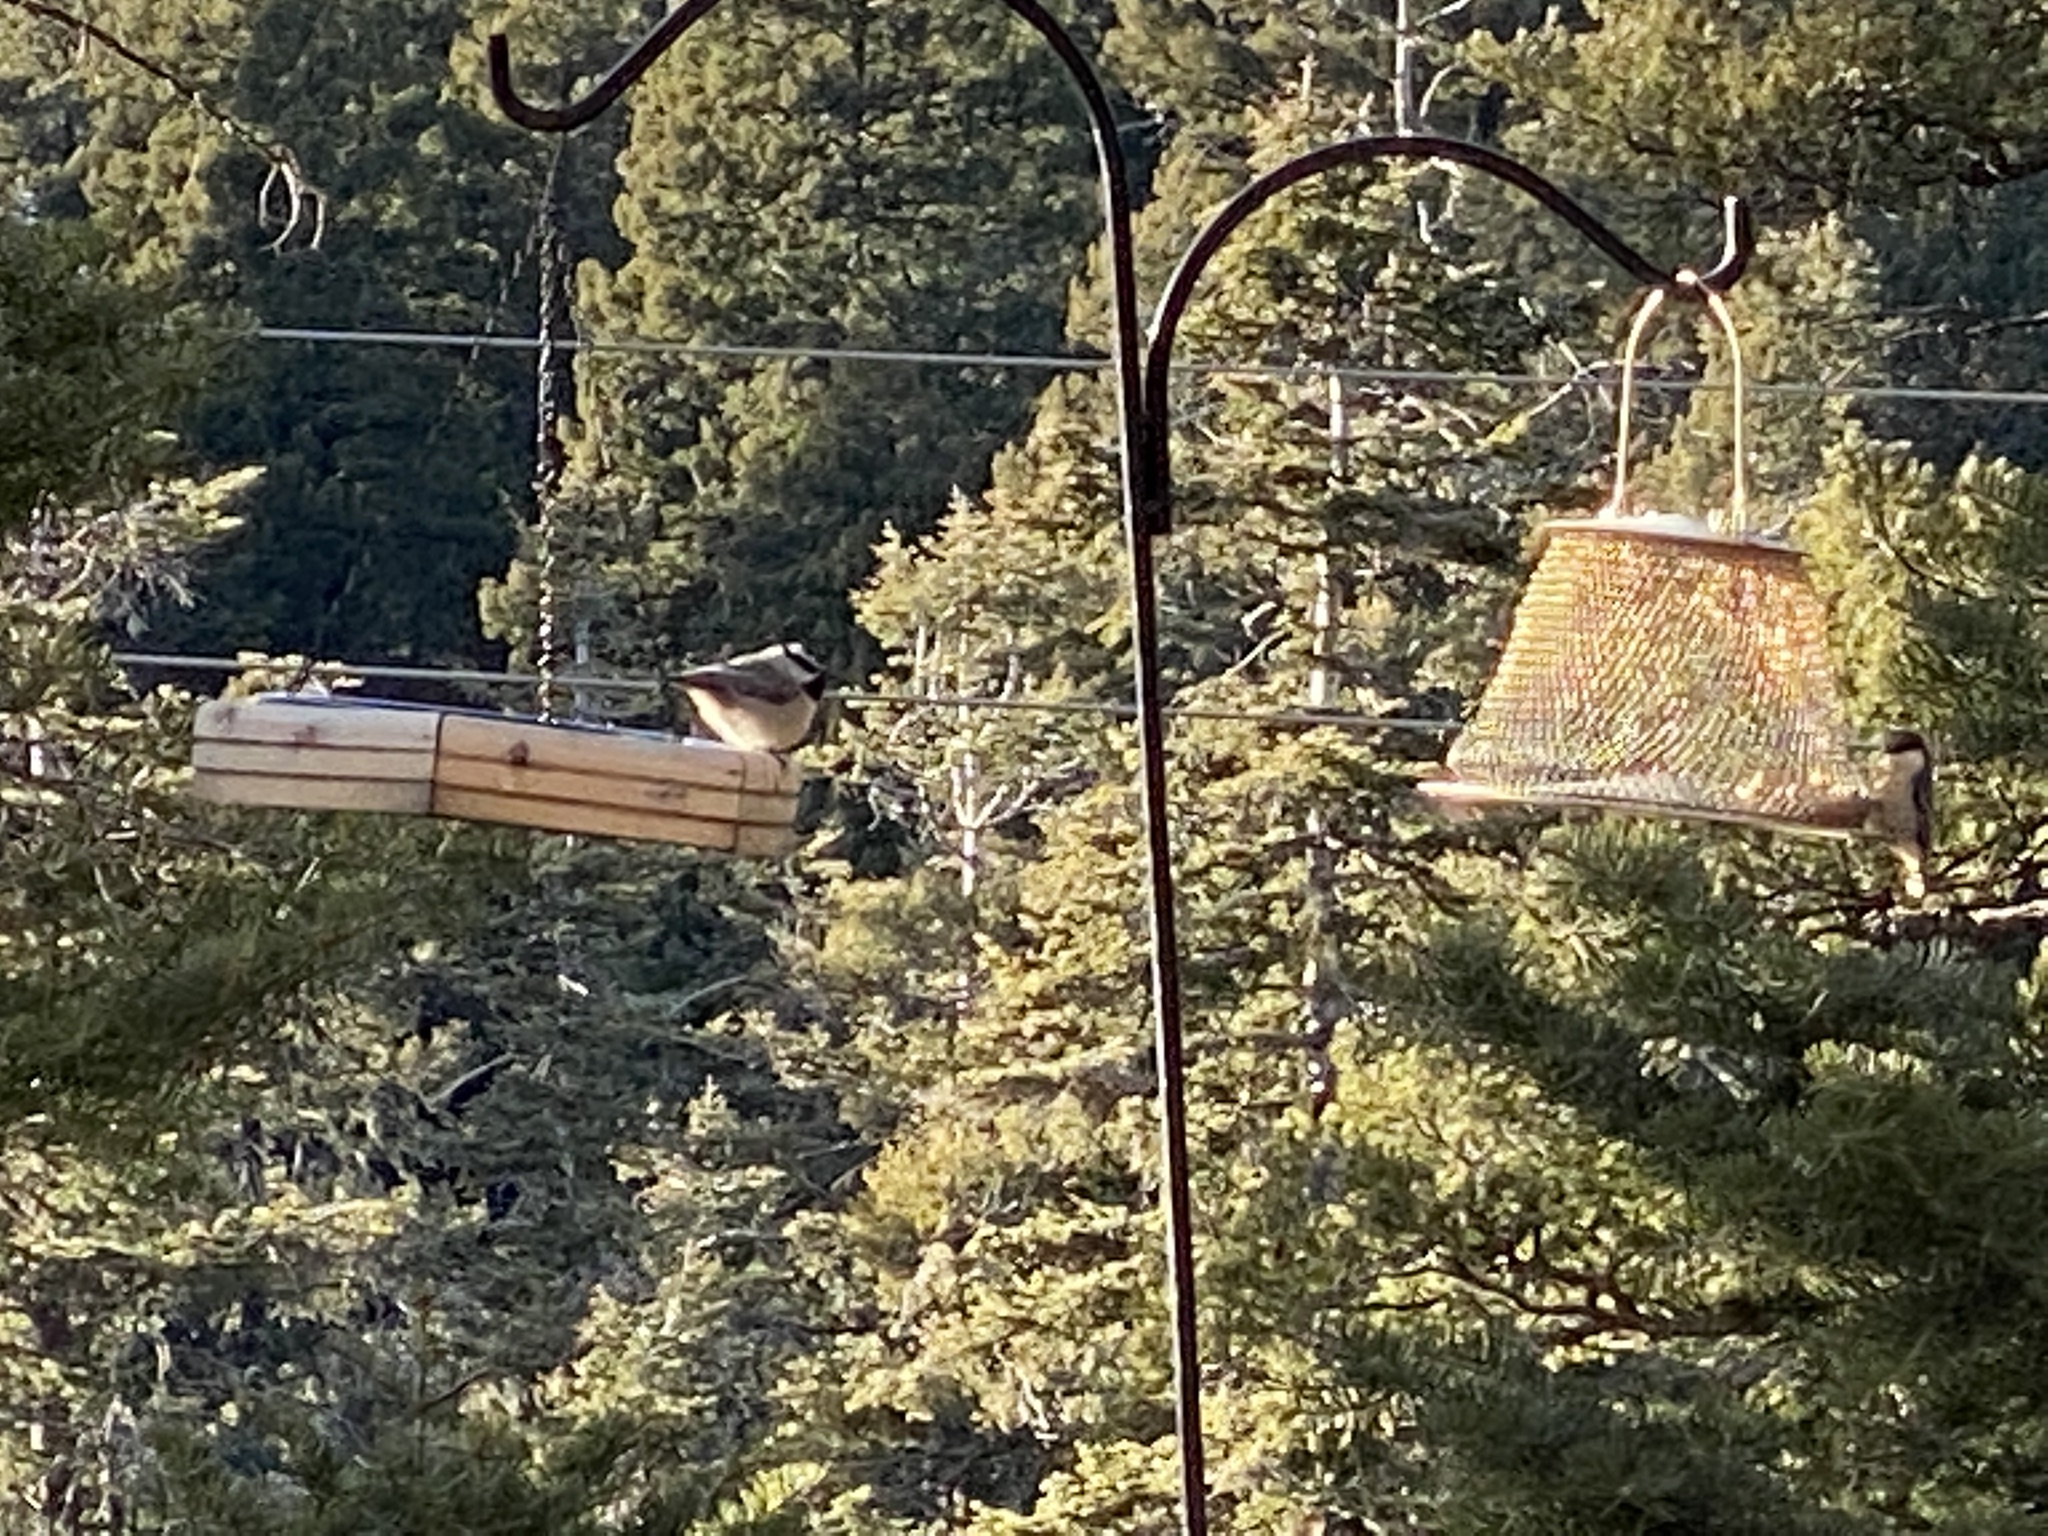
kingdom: Animalia
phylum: Chordata
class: Aves
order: Passeriformes
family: Paridae
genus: Poecile
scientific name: Poecile gambeli
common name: Mountain chickadee
